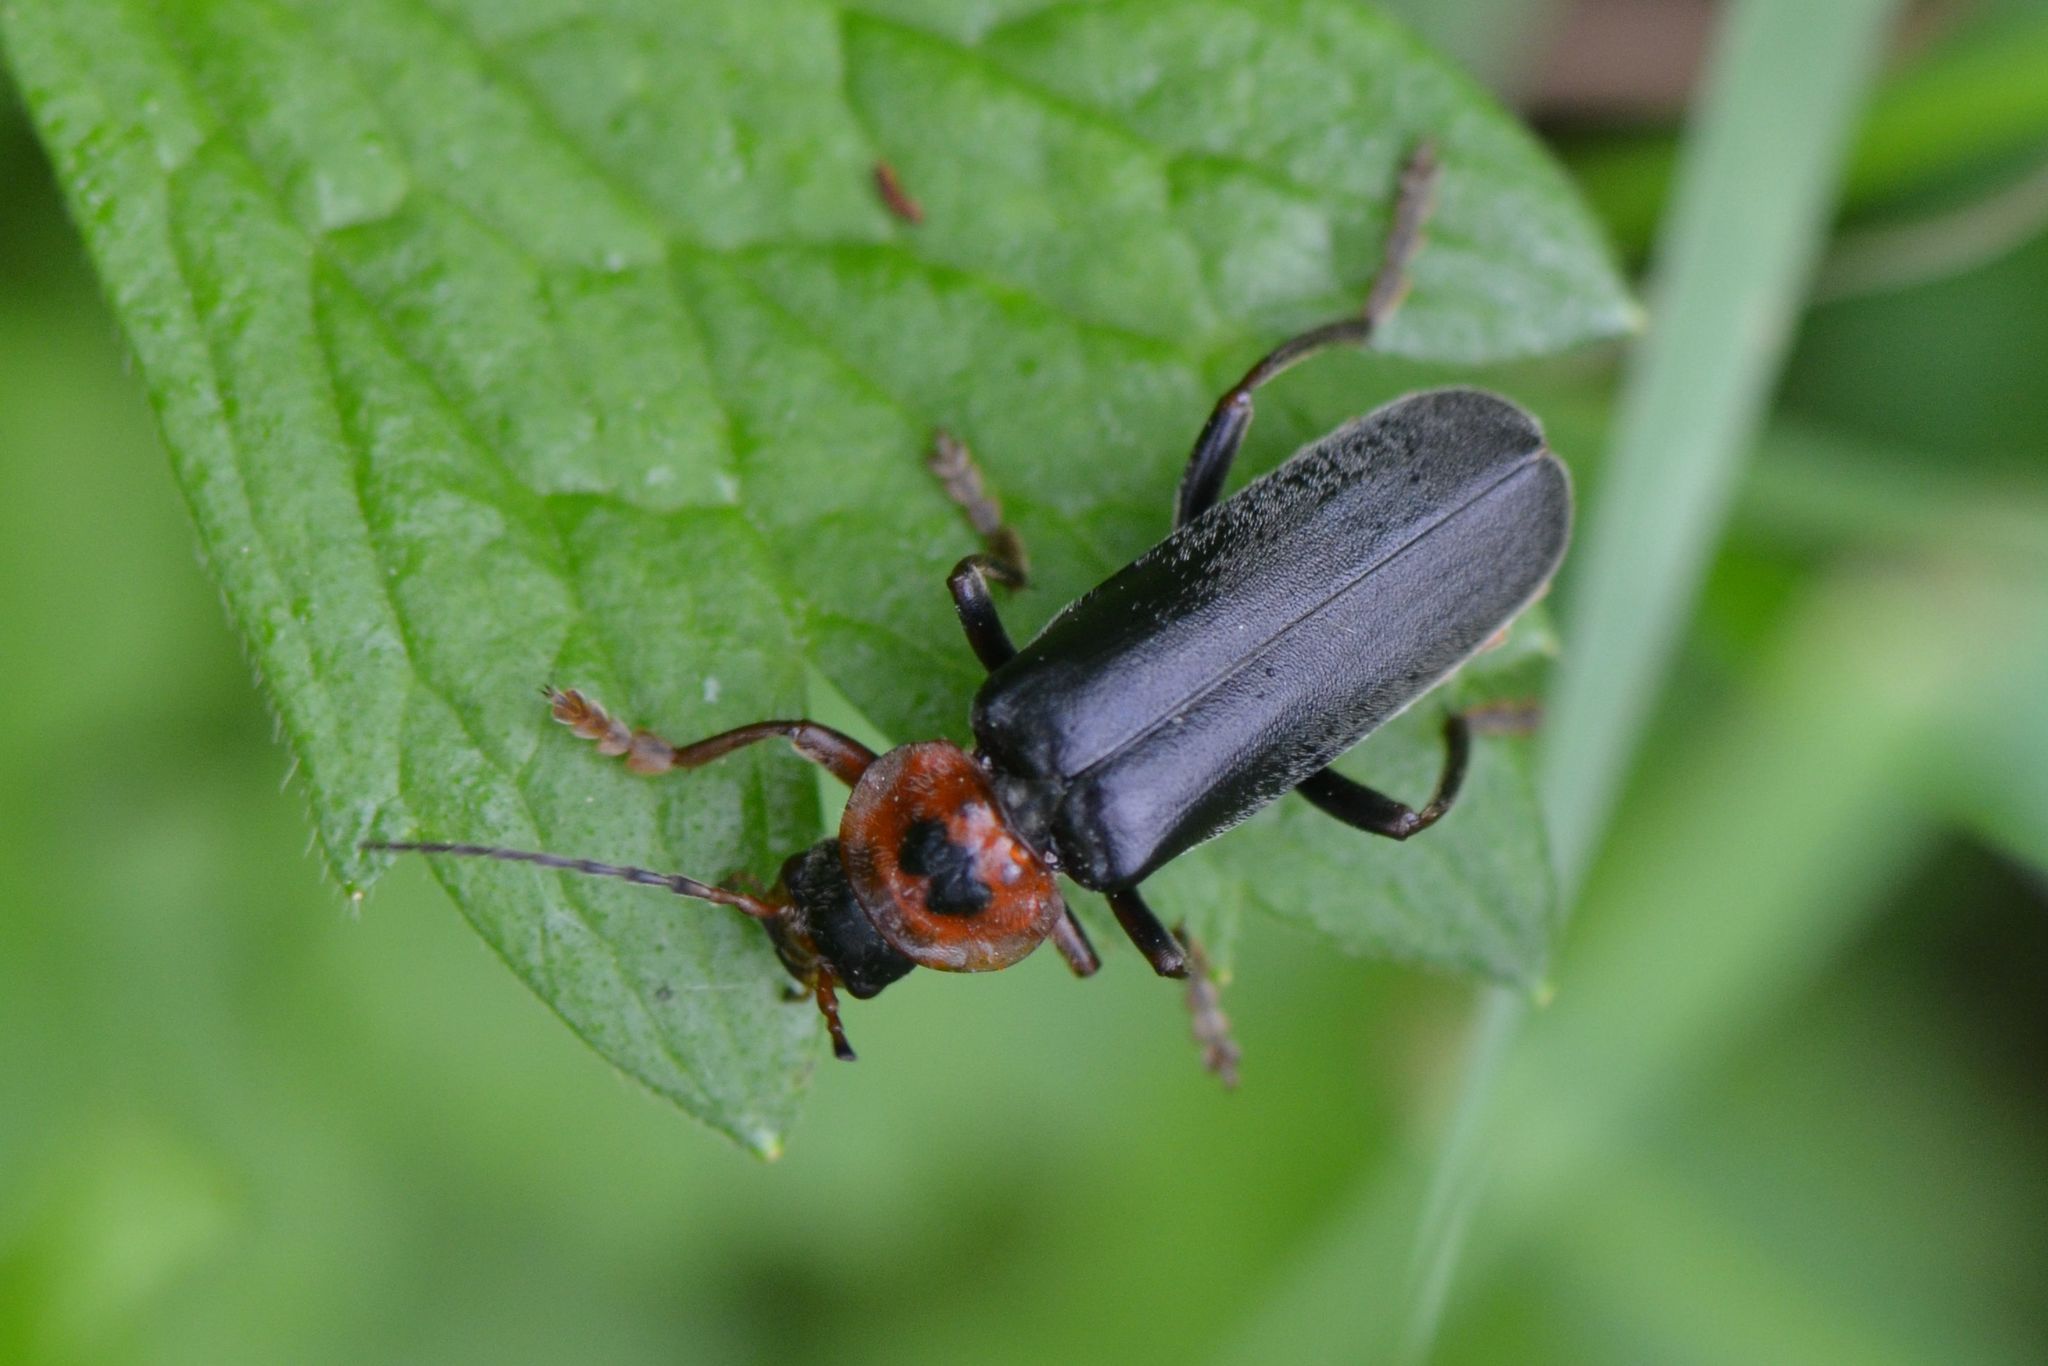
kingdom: Animalia
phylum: Arthropoda
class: Insecta
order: Coleoptera
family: Cantharidae
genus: Cantharis
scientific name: Cantharis annularis
